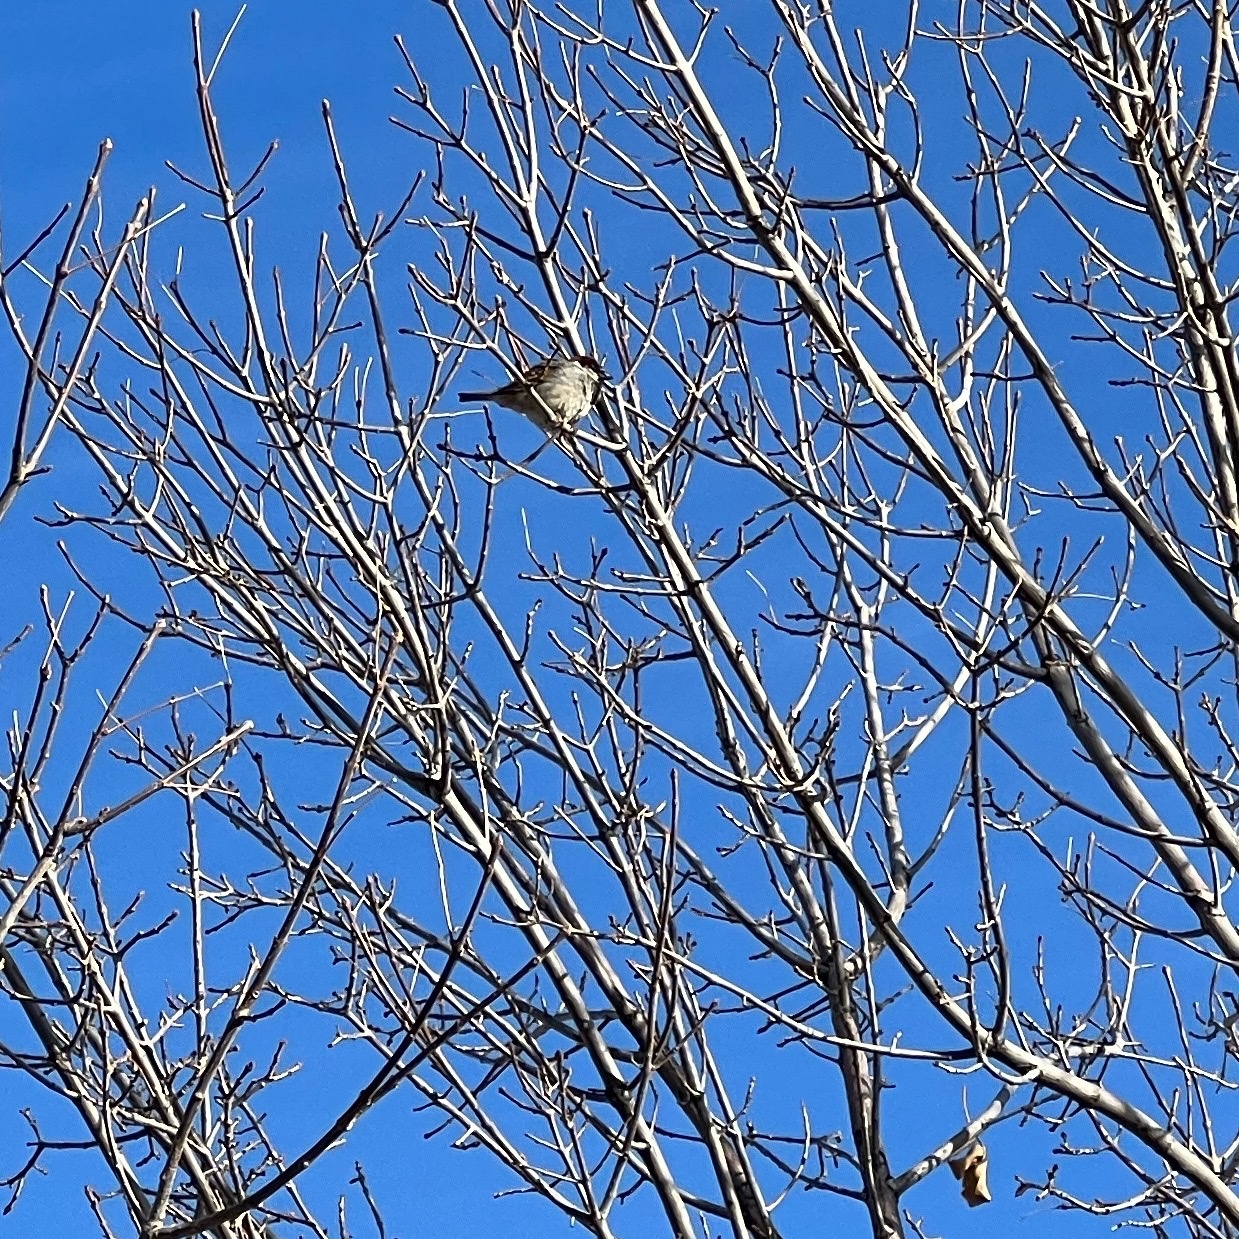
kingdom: Animalia
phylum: Chordata
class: Aves
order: Passeriformes
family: Passeridae
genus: Passer
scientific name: Passer domesticus
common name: House sparrow
